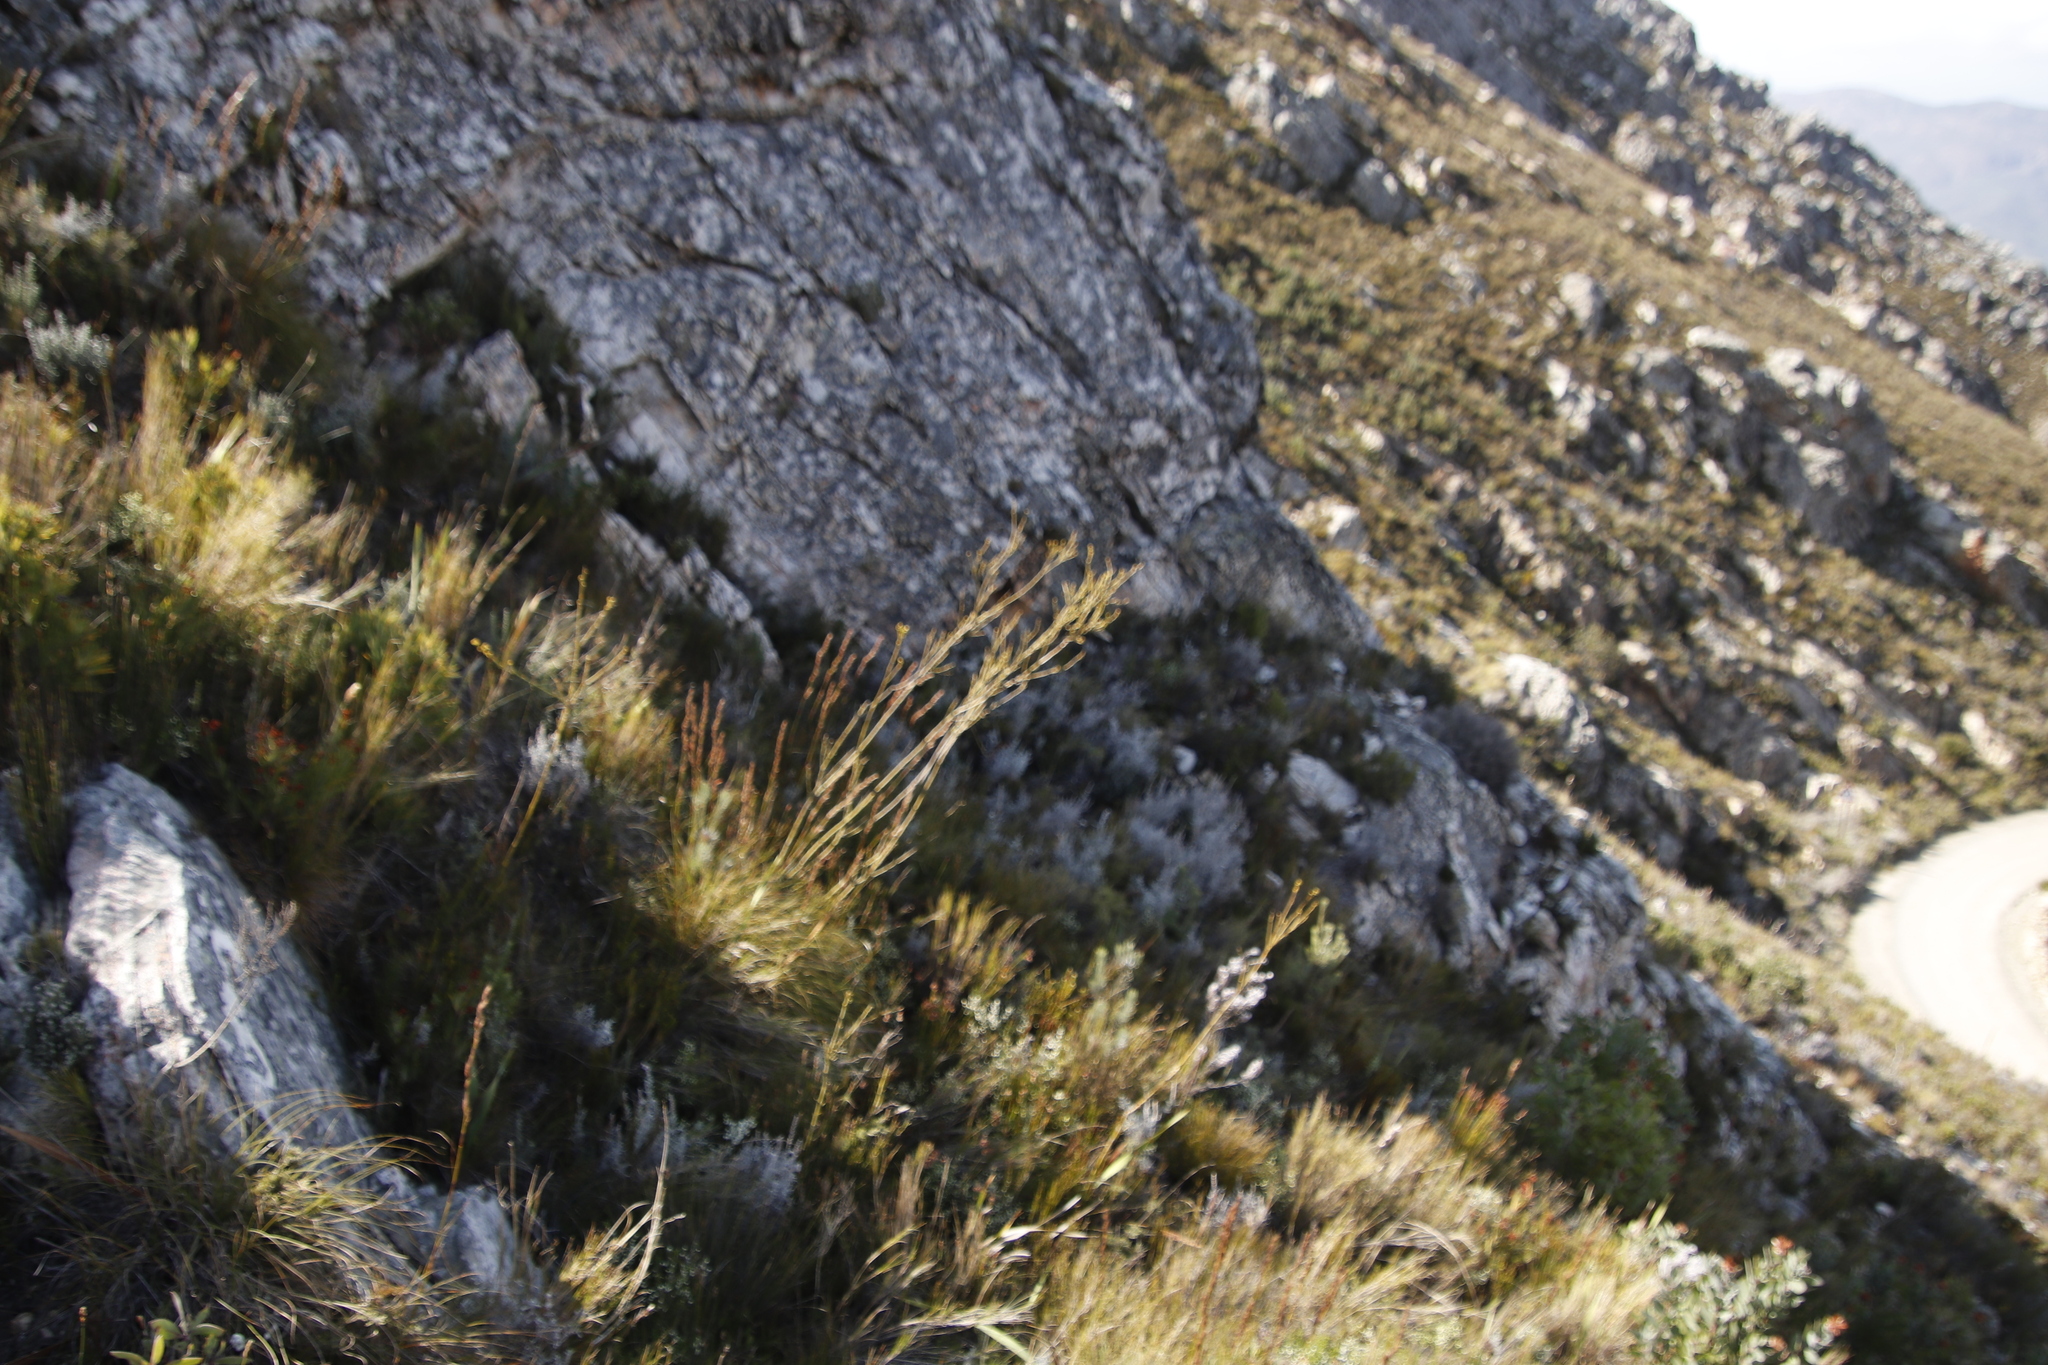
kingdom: Plantae
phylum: Tracheophyta
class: Magnoliopsida
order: Santalales
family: Thesiaceae
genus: Thesium
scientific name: Thesium strictum
